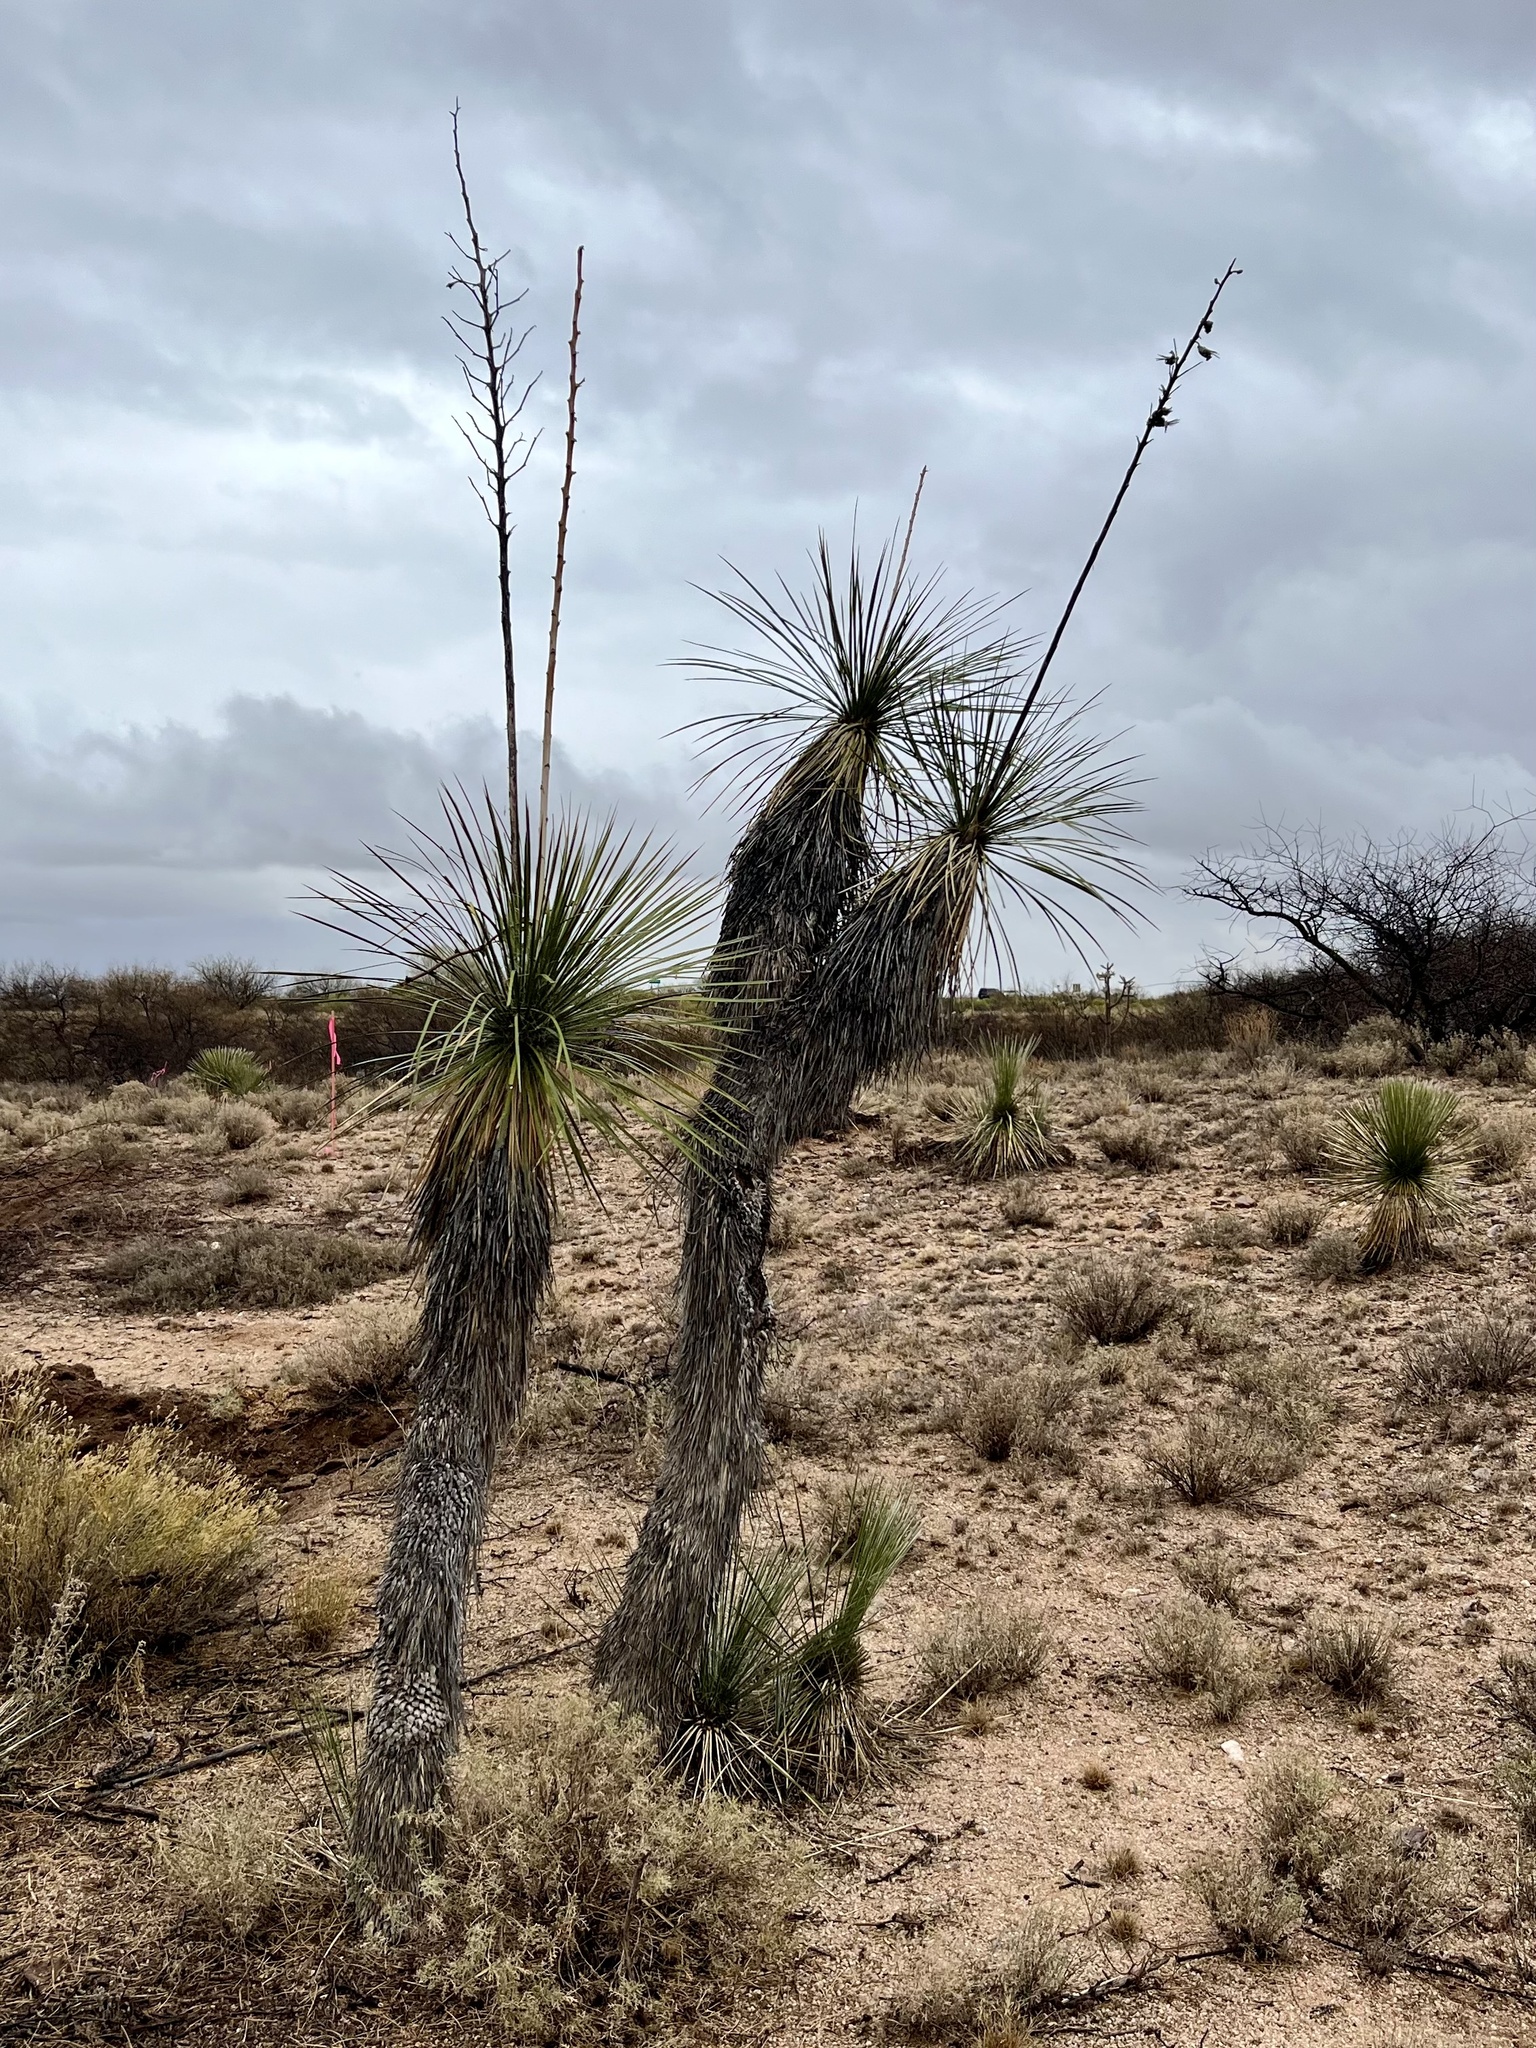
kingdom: Plantae
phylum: Tracheophyta
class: Liliopsida
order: Asparagales
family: Asparagaceae
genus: Yucca
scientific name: Yucca elata
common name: Palmella
